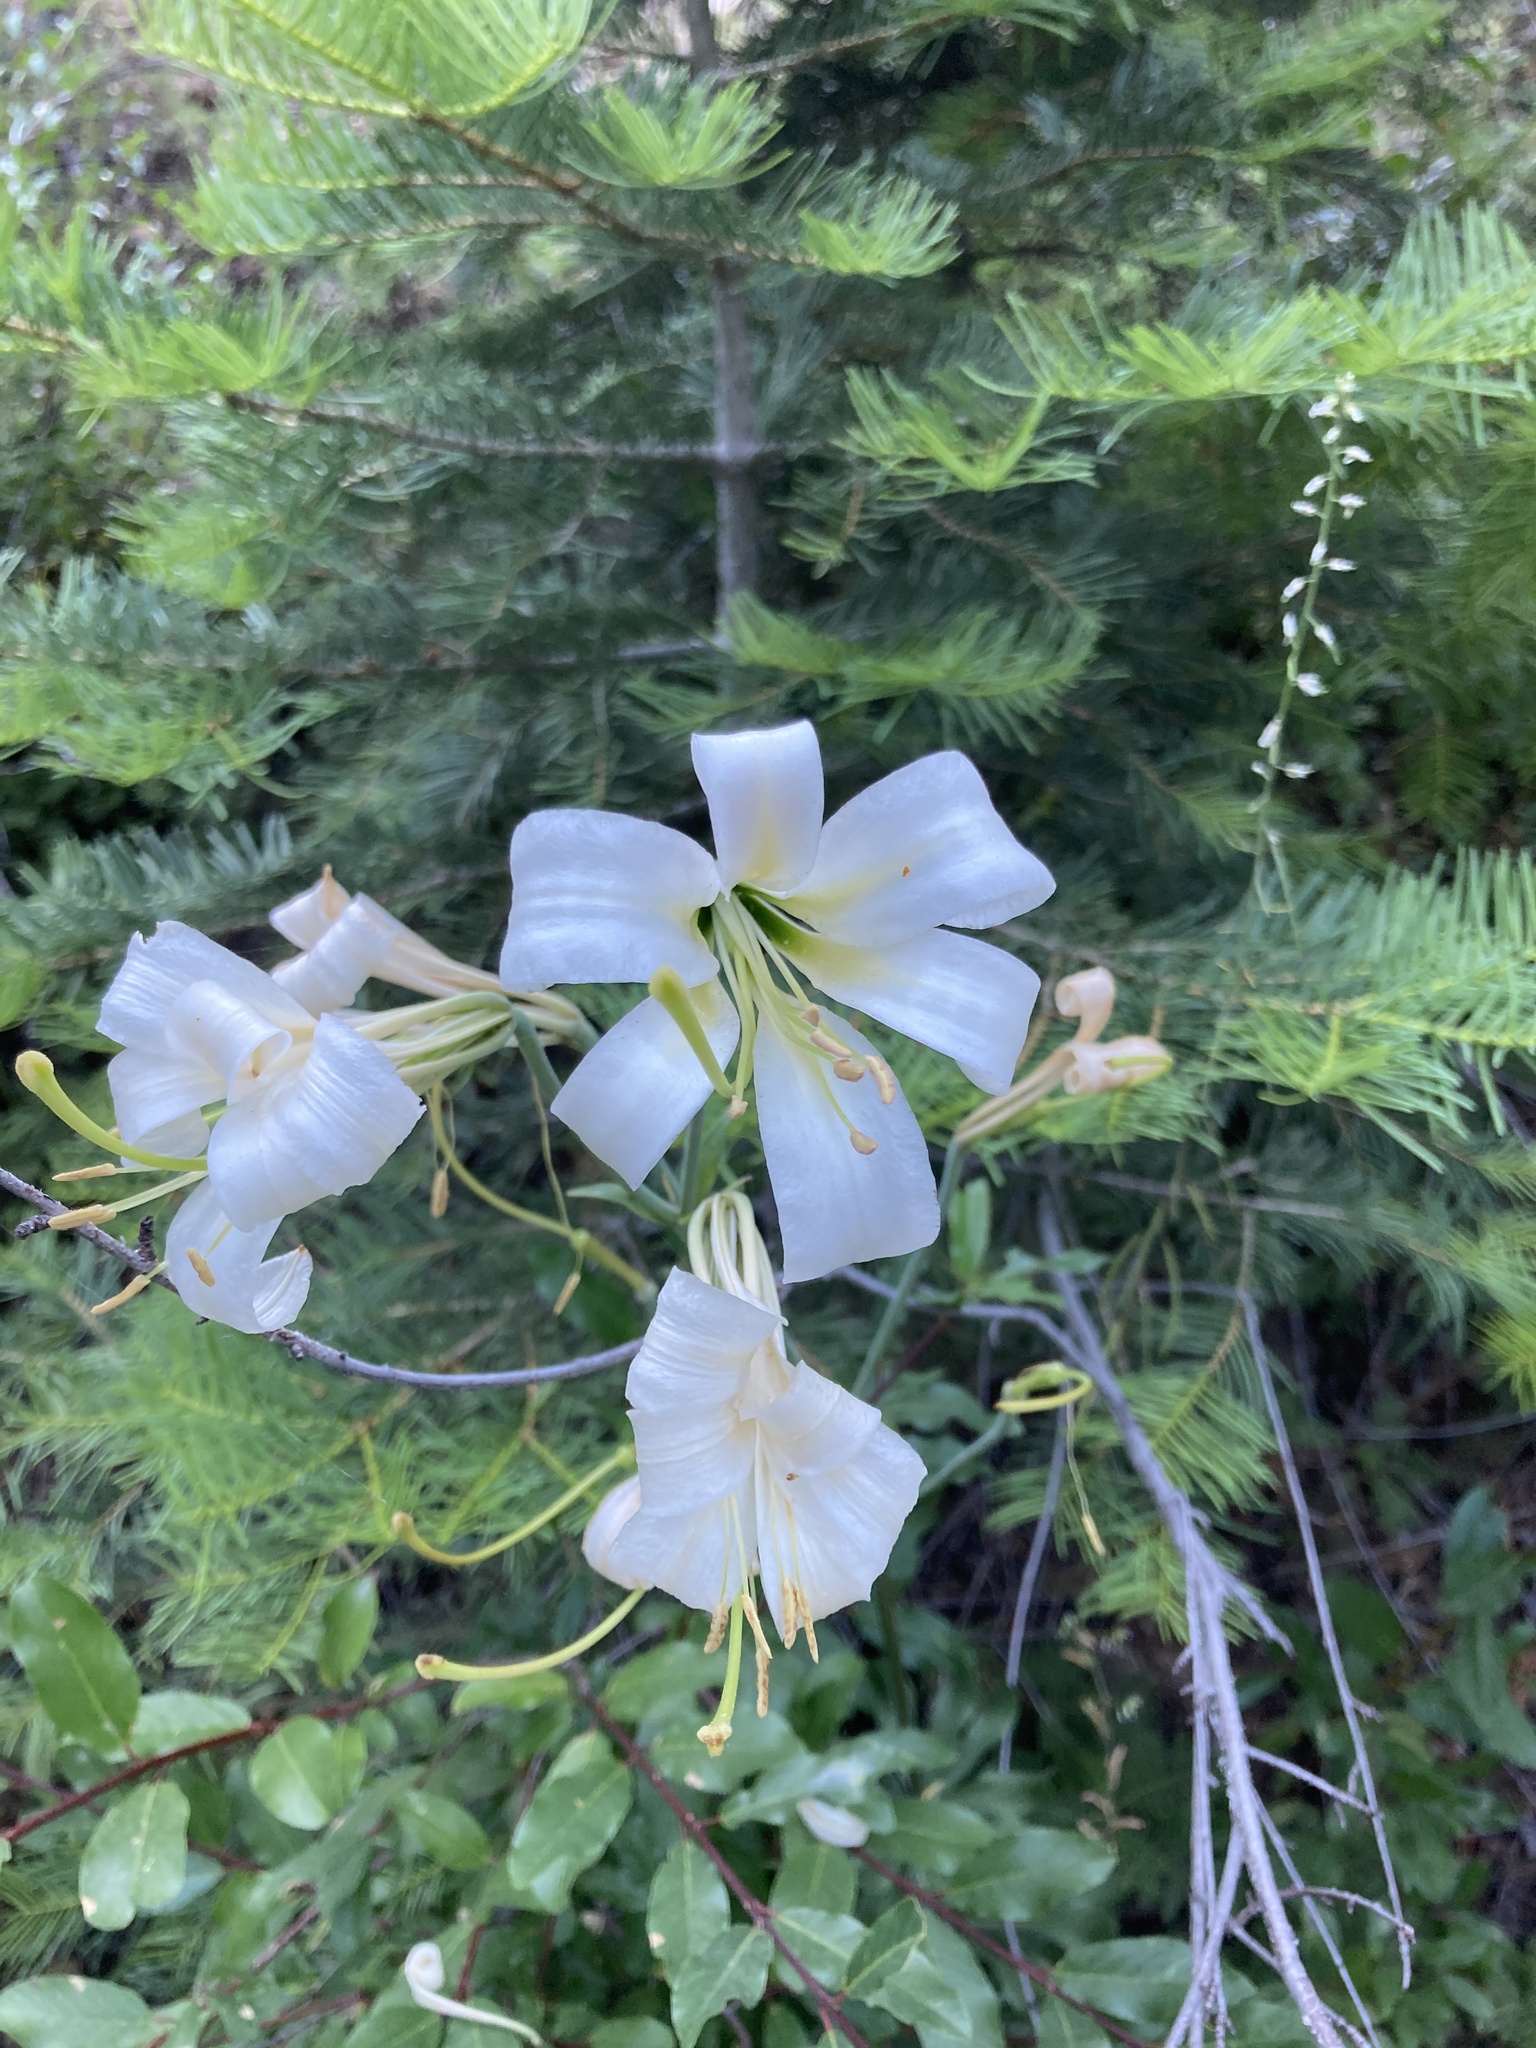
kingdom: Plantae
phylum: Tracheophyta
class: Liliopsida
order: Liliales
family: Liliaceae
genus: Lilium
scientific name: Lilium washingtonianum
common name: Washington lily
